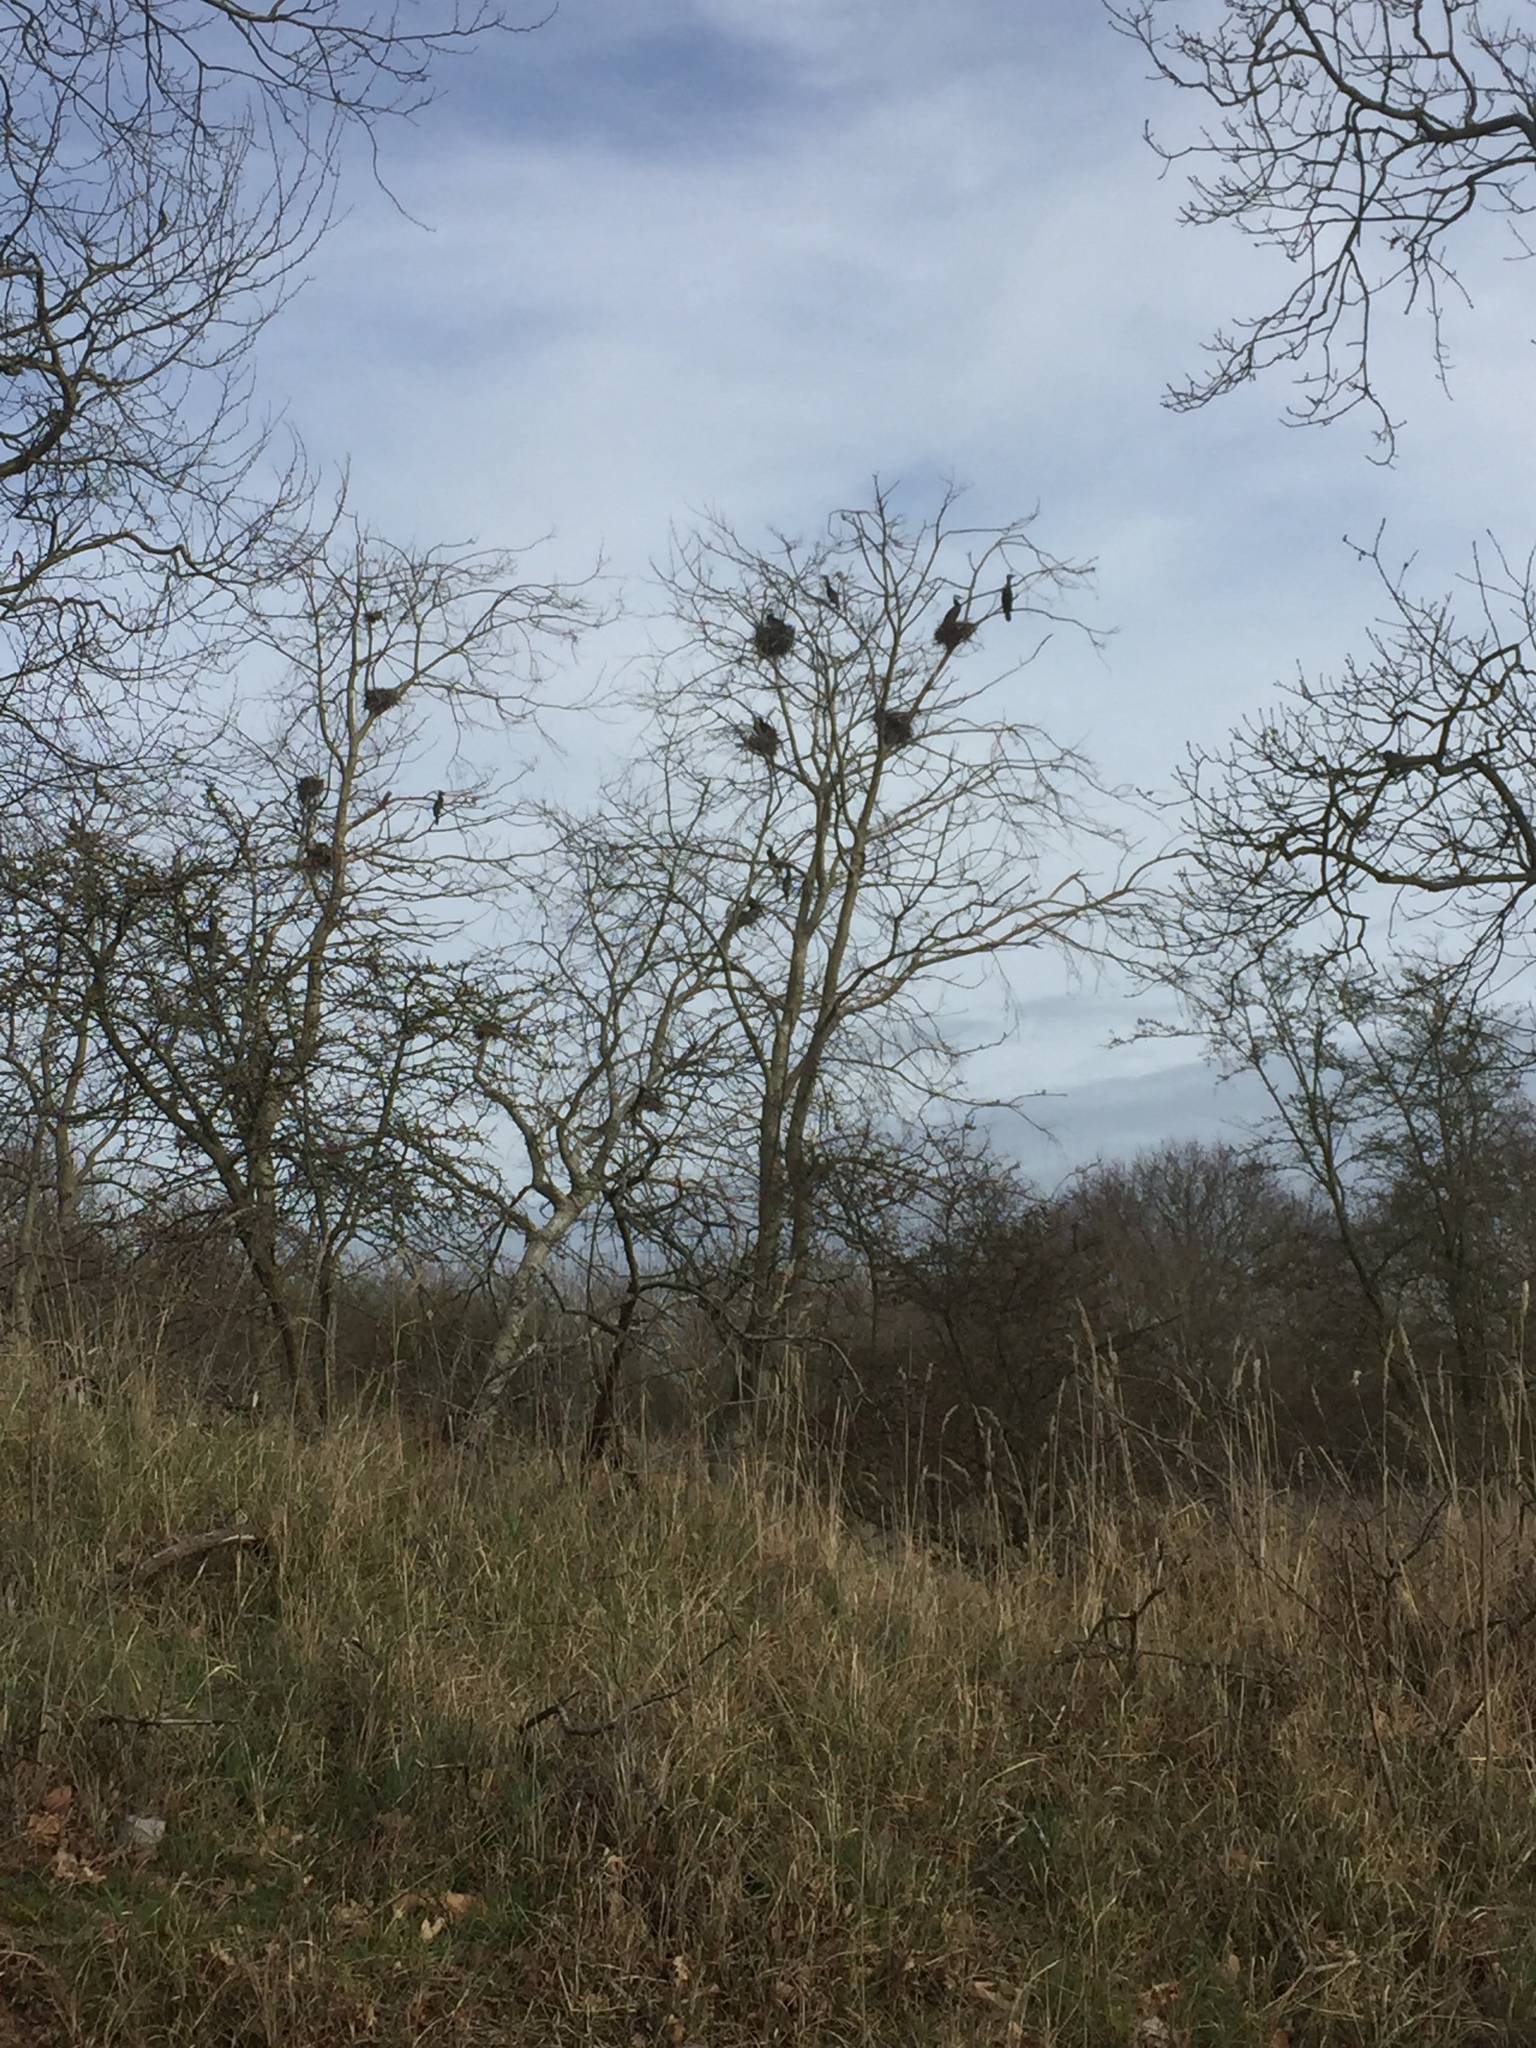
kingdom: Animalia
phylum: Chordata
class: Aves
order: Suliformes
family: Phalacrocoracidae
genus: Phalacrocorax
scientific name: Phalacrocorax carbo
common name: Great cormorant
